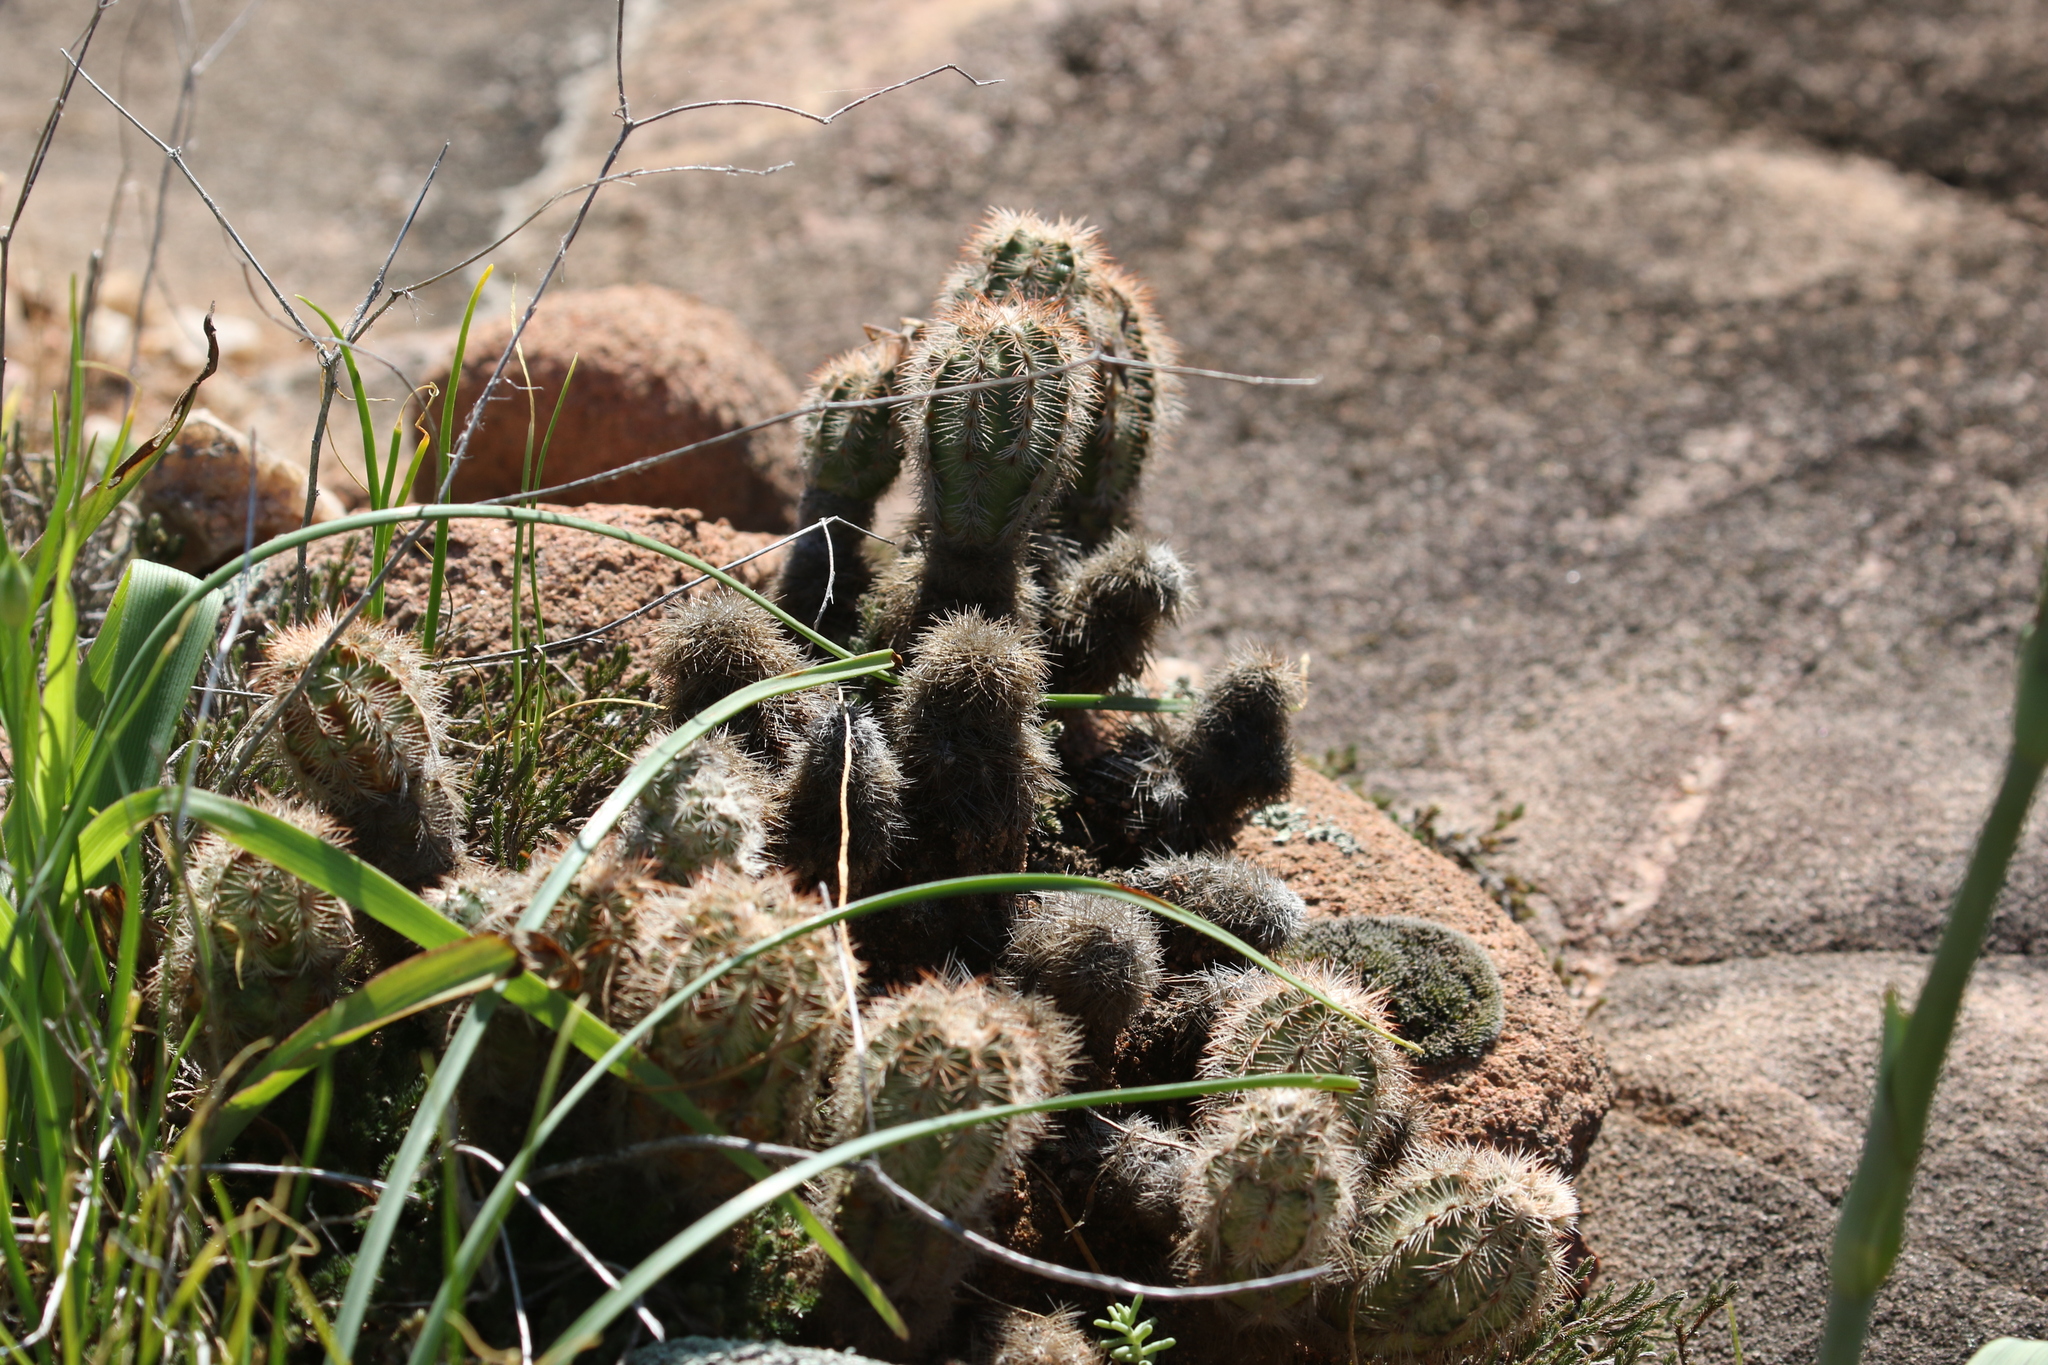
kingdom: Plantae
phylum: Tracheophyta
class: Magnoliopsida
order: Caryophyllales
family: Cactaceae
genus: Echinocereus
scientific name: Echinocereus reichenbachii
